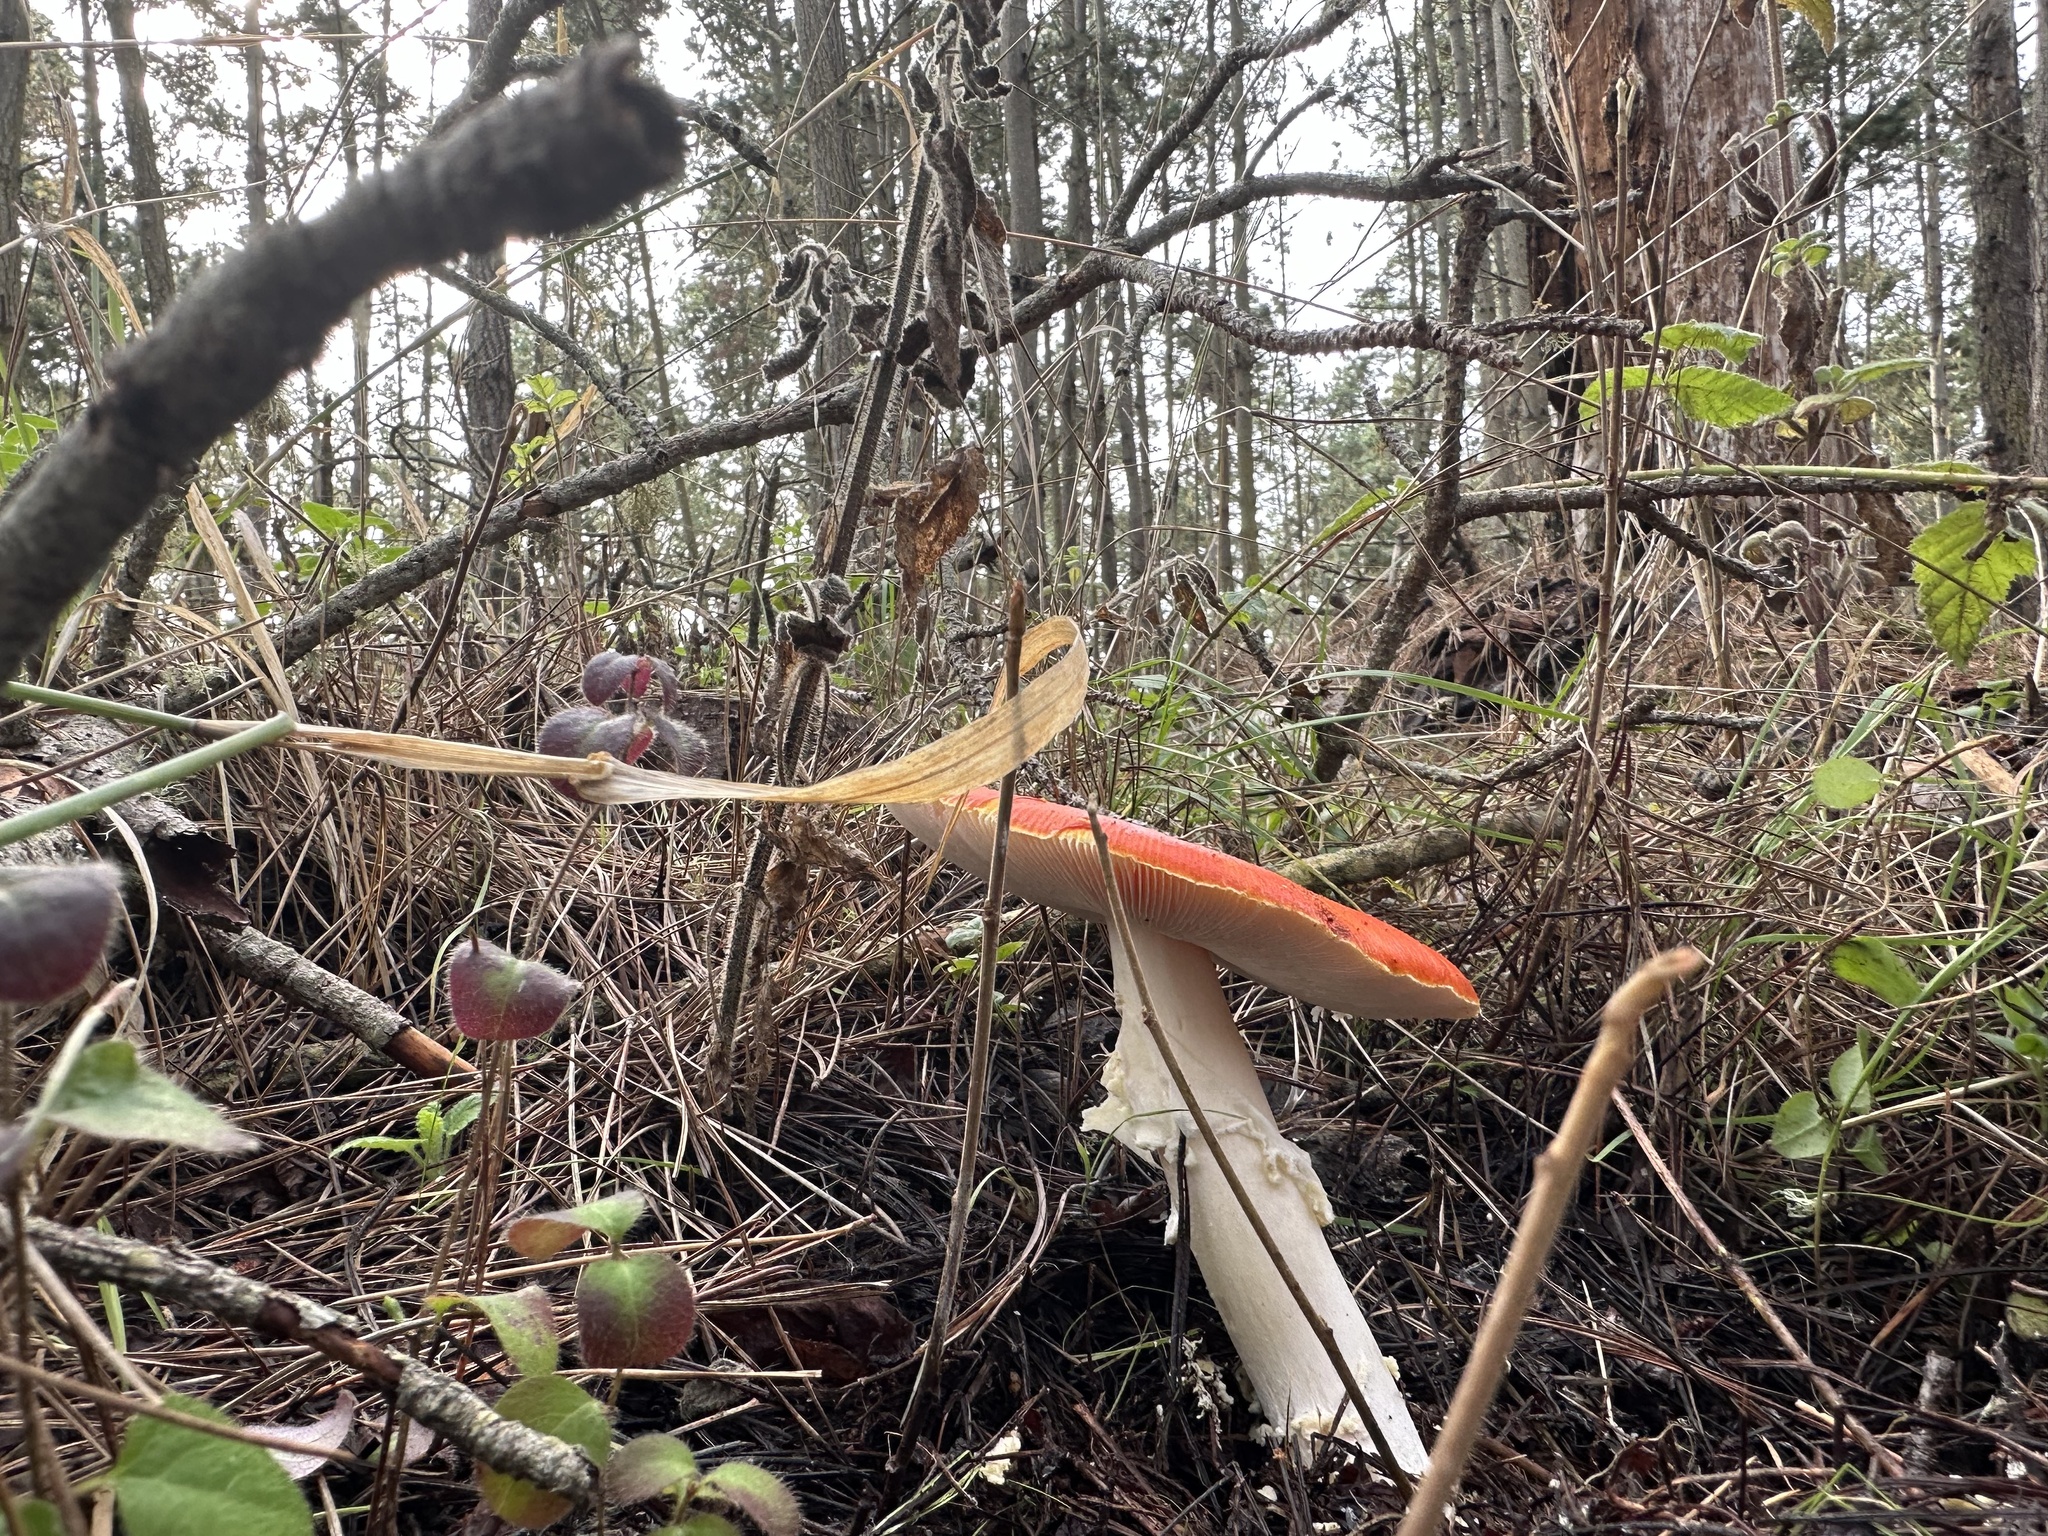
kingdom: Fungi
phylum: Basidiomycota
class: Agaricomycetes
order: Agaricales
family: Amanitaceae
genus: Amanita
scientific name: Amanita muscaria
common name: Fly agaric
